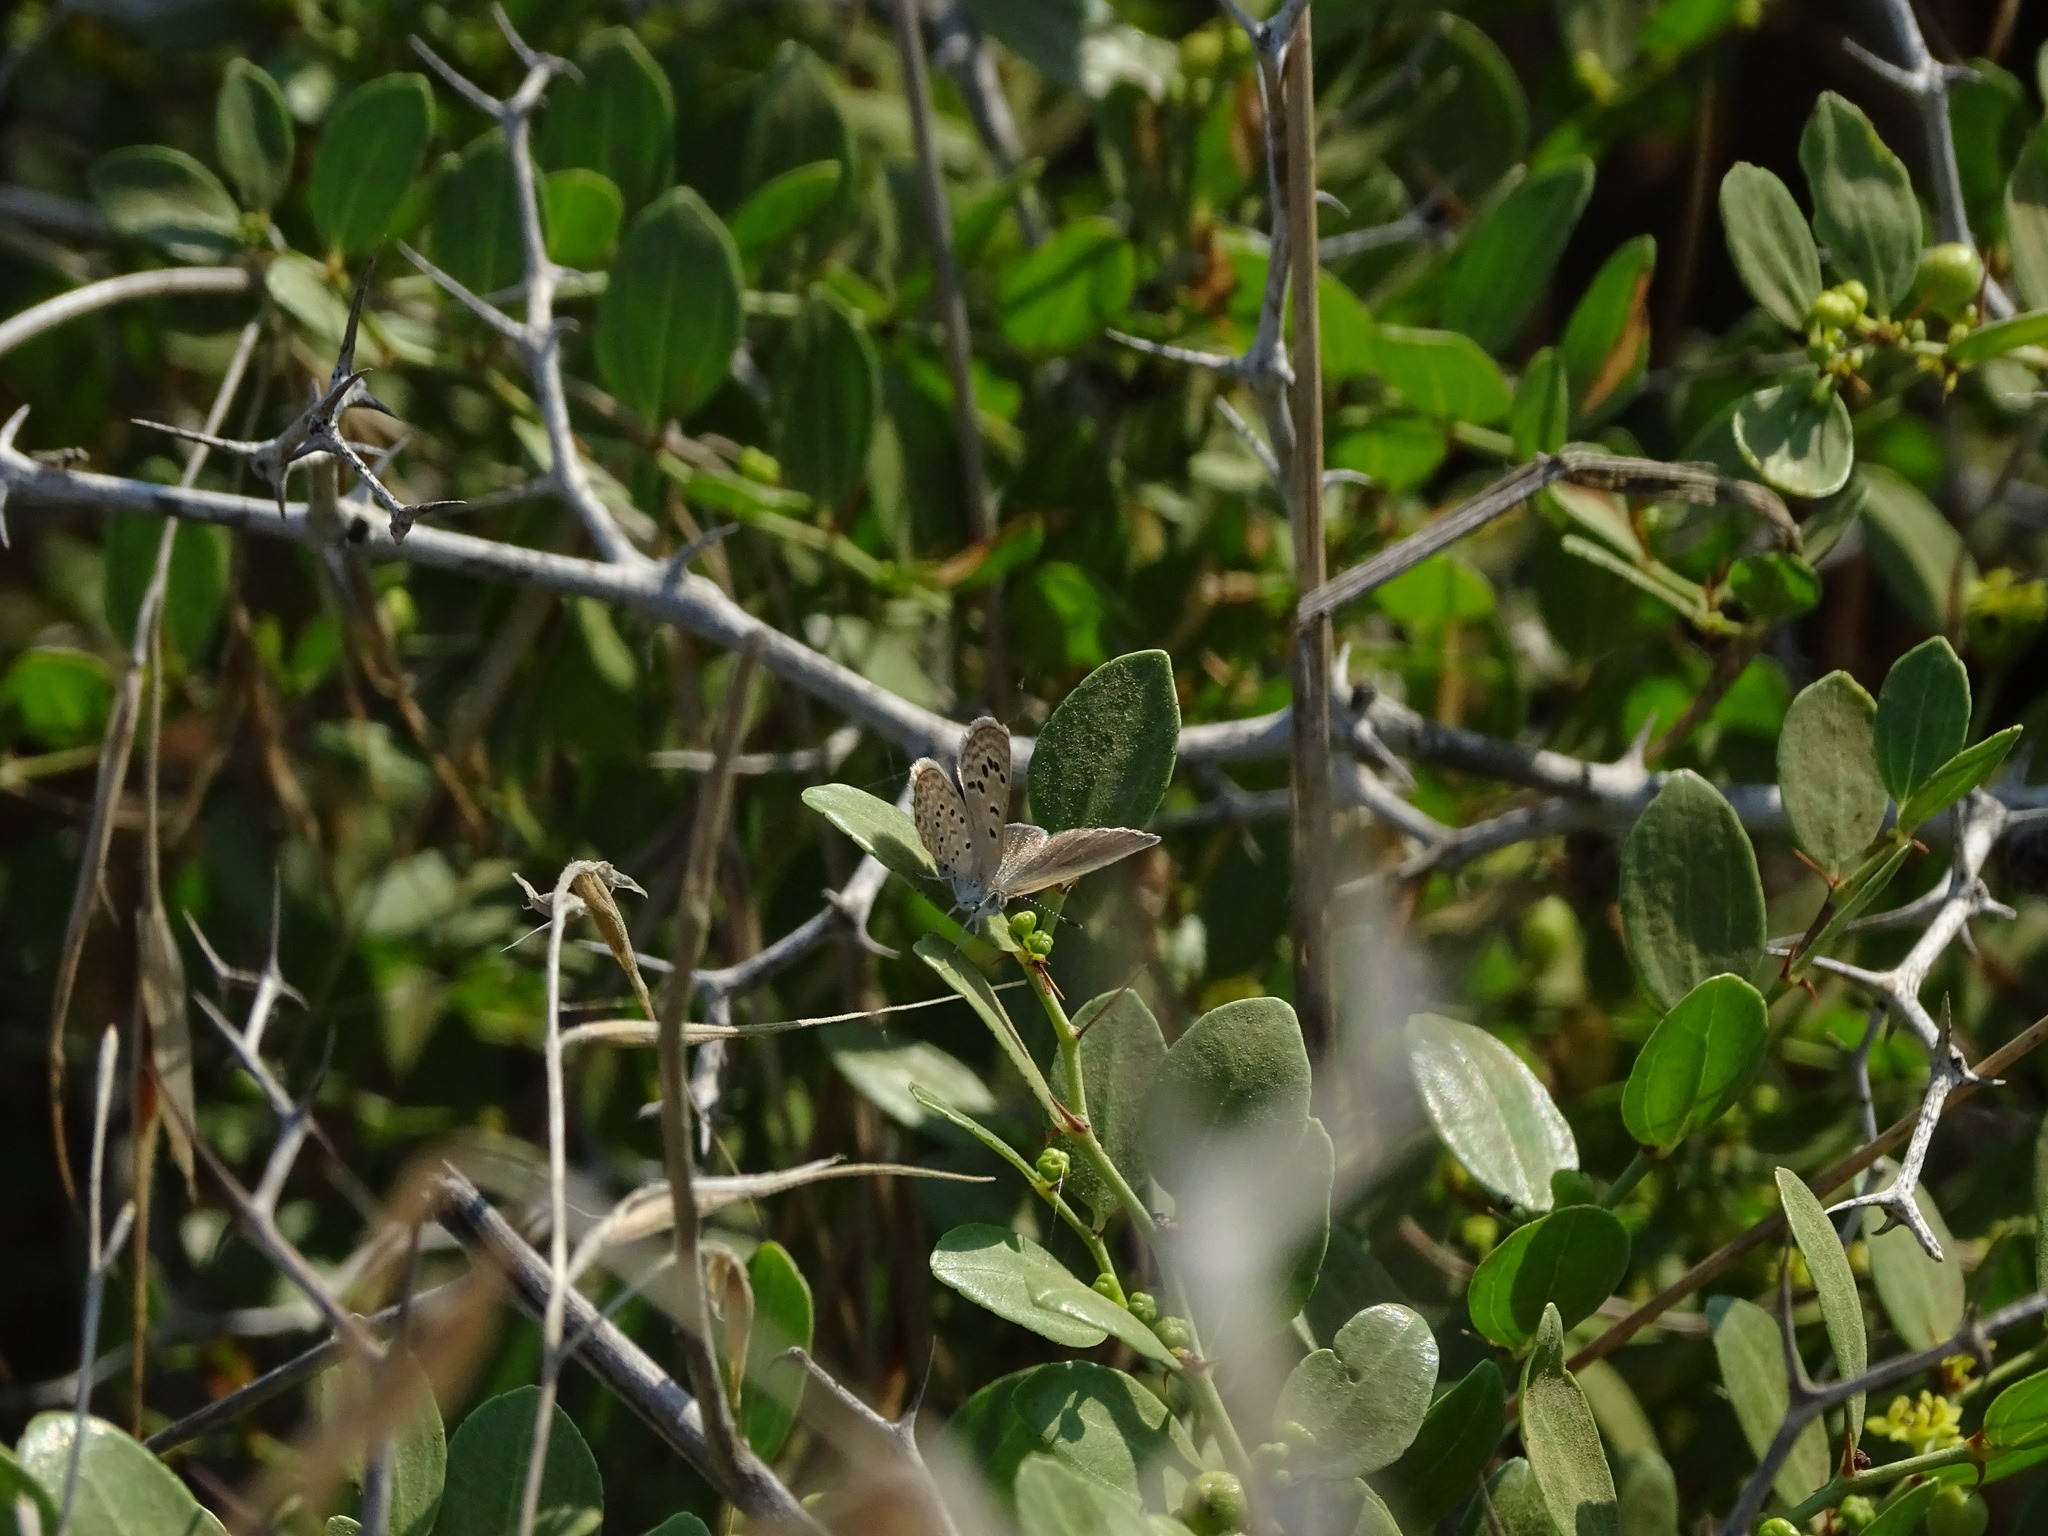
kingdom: Animalia
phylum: Arthropoda
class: Insecta
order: Lepidoptera
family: Lycaenidae
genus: Zizeeria
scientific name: Zizeeria karsandra
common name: Dark grass blue
